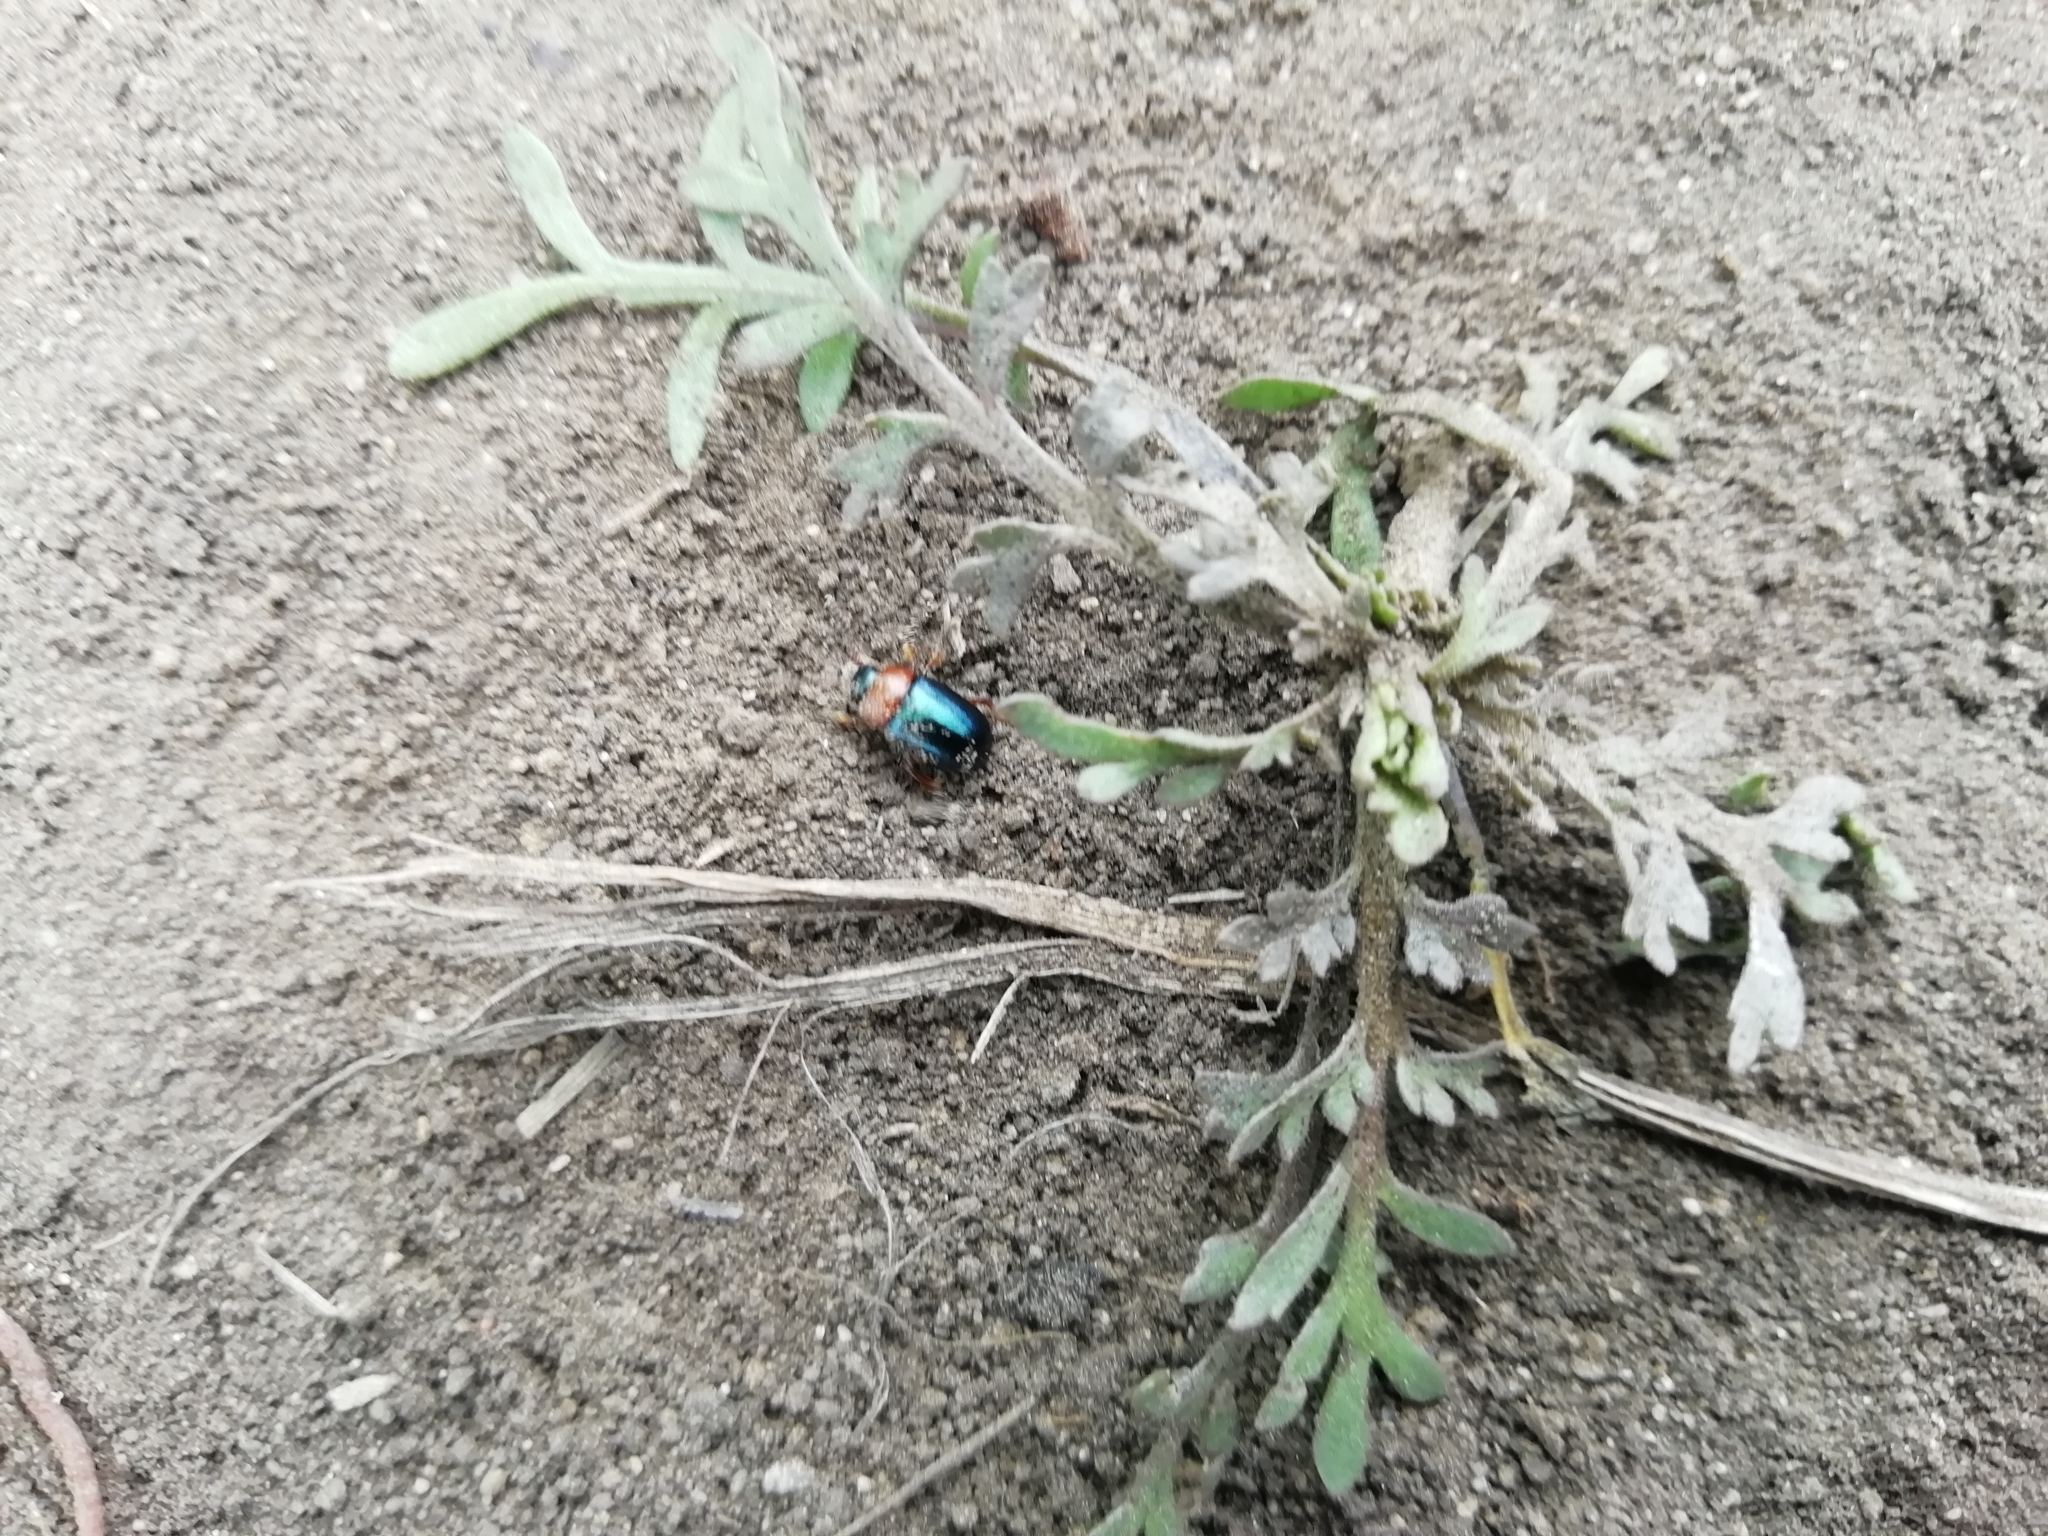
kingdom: Animalia
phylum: Arthropoda
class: Insecta
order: Coleoptera
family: Chrysomelidae
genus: Gastrophysa
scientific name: Gastrophysa polygoni
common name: Knotweed leaf beetle
